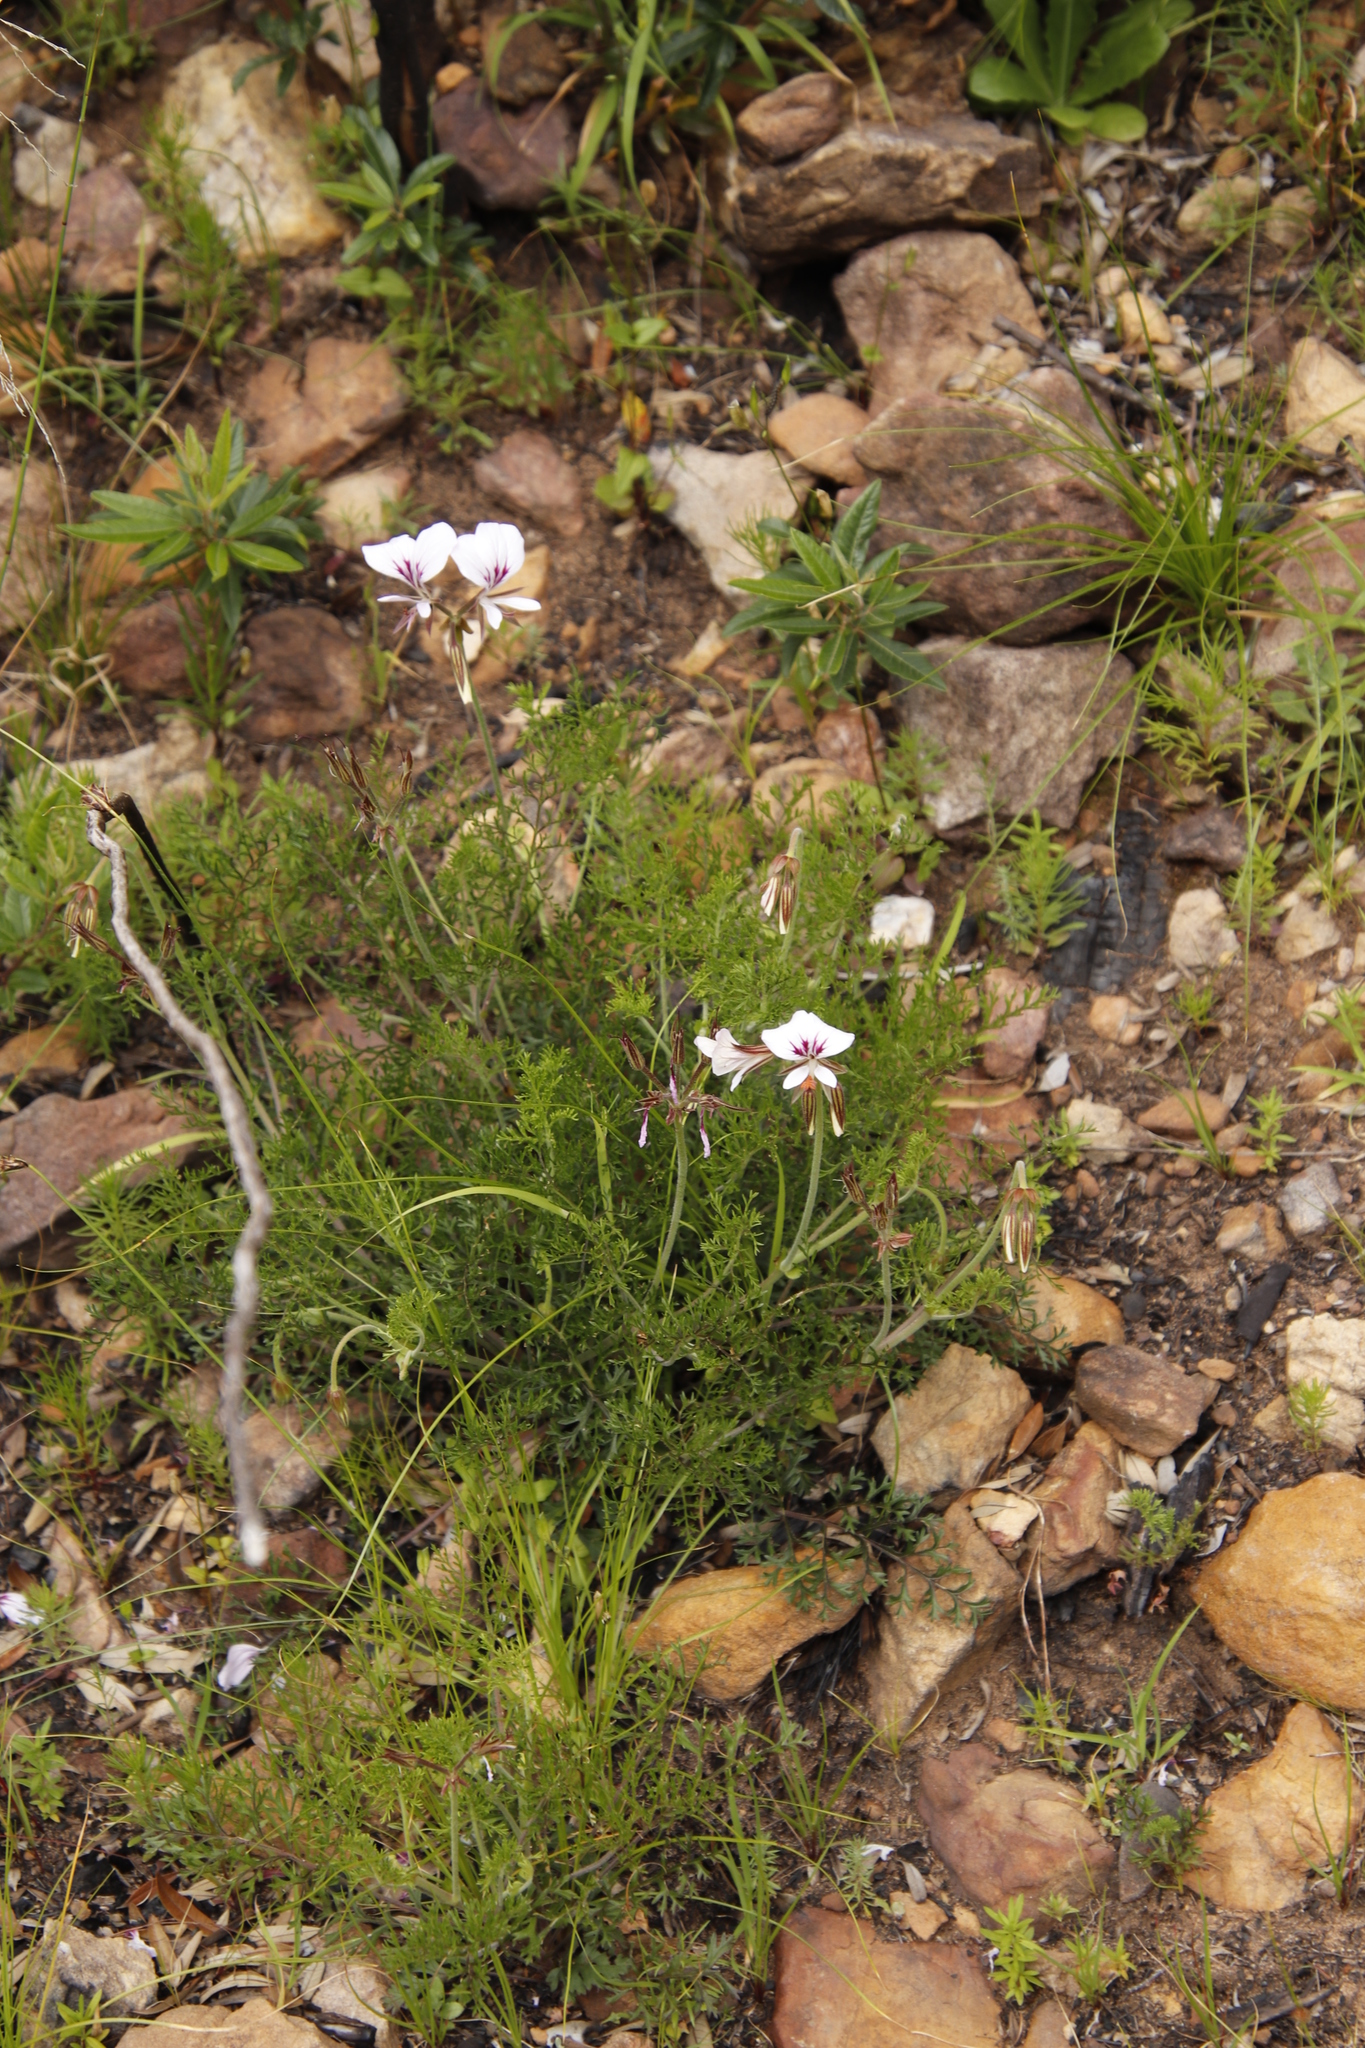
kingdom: Plantae
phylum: Tracheophyta
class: Magnoliopsida
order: Geraniales
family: Geraniaceae
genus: Pelargonium
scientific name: Pelargonium myrrhifolium
